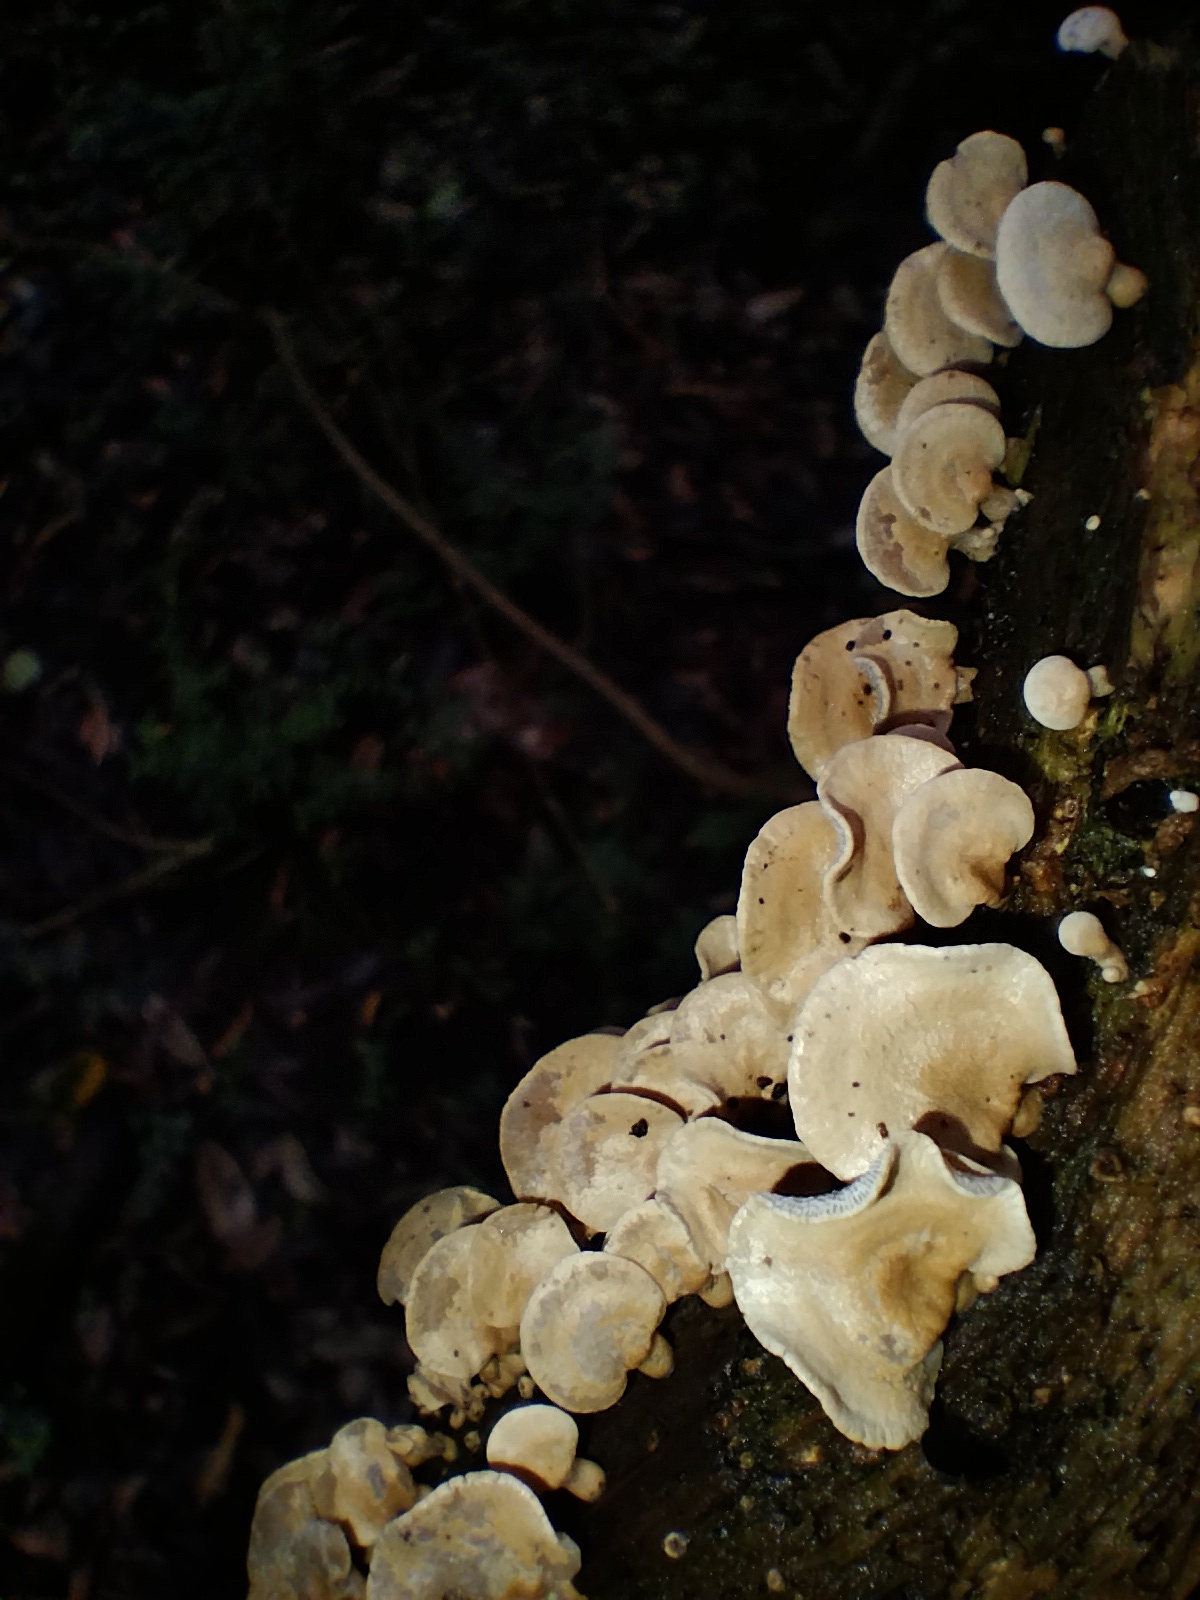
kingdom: Fungi
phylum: Basidiomycota
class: Agaricomycetes
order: Agaricales
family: Mycenaceae
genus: Panellus
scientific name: Panellus luxfilamentus
